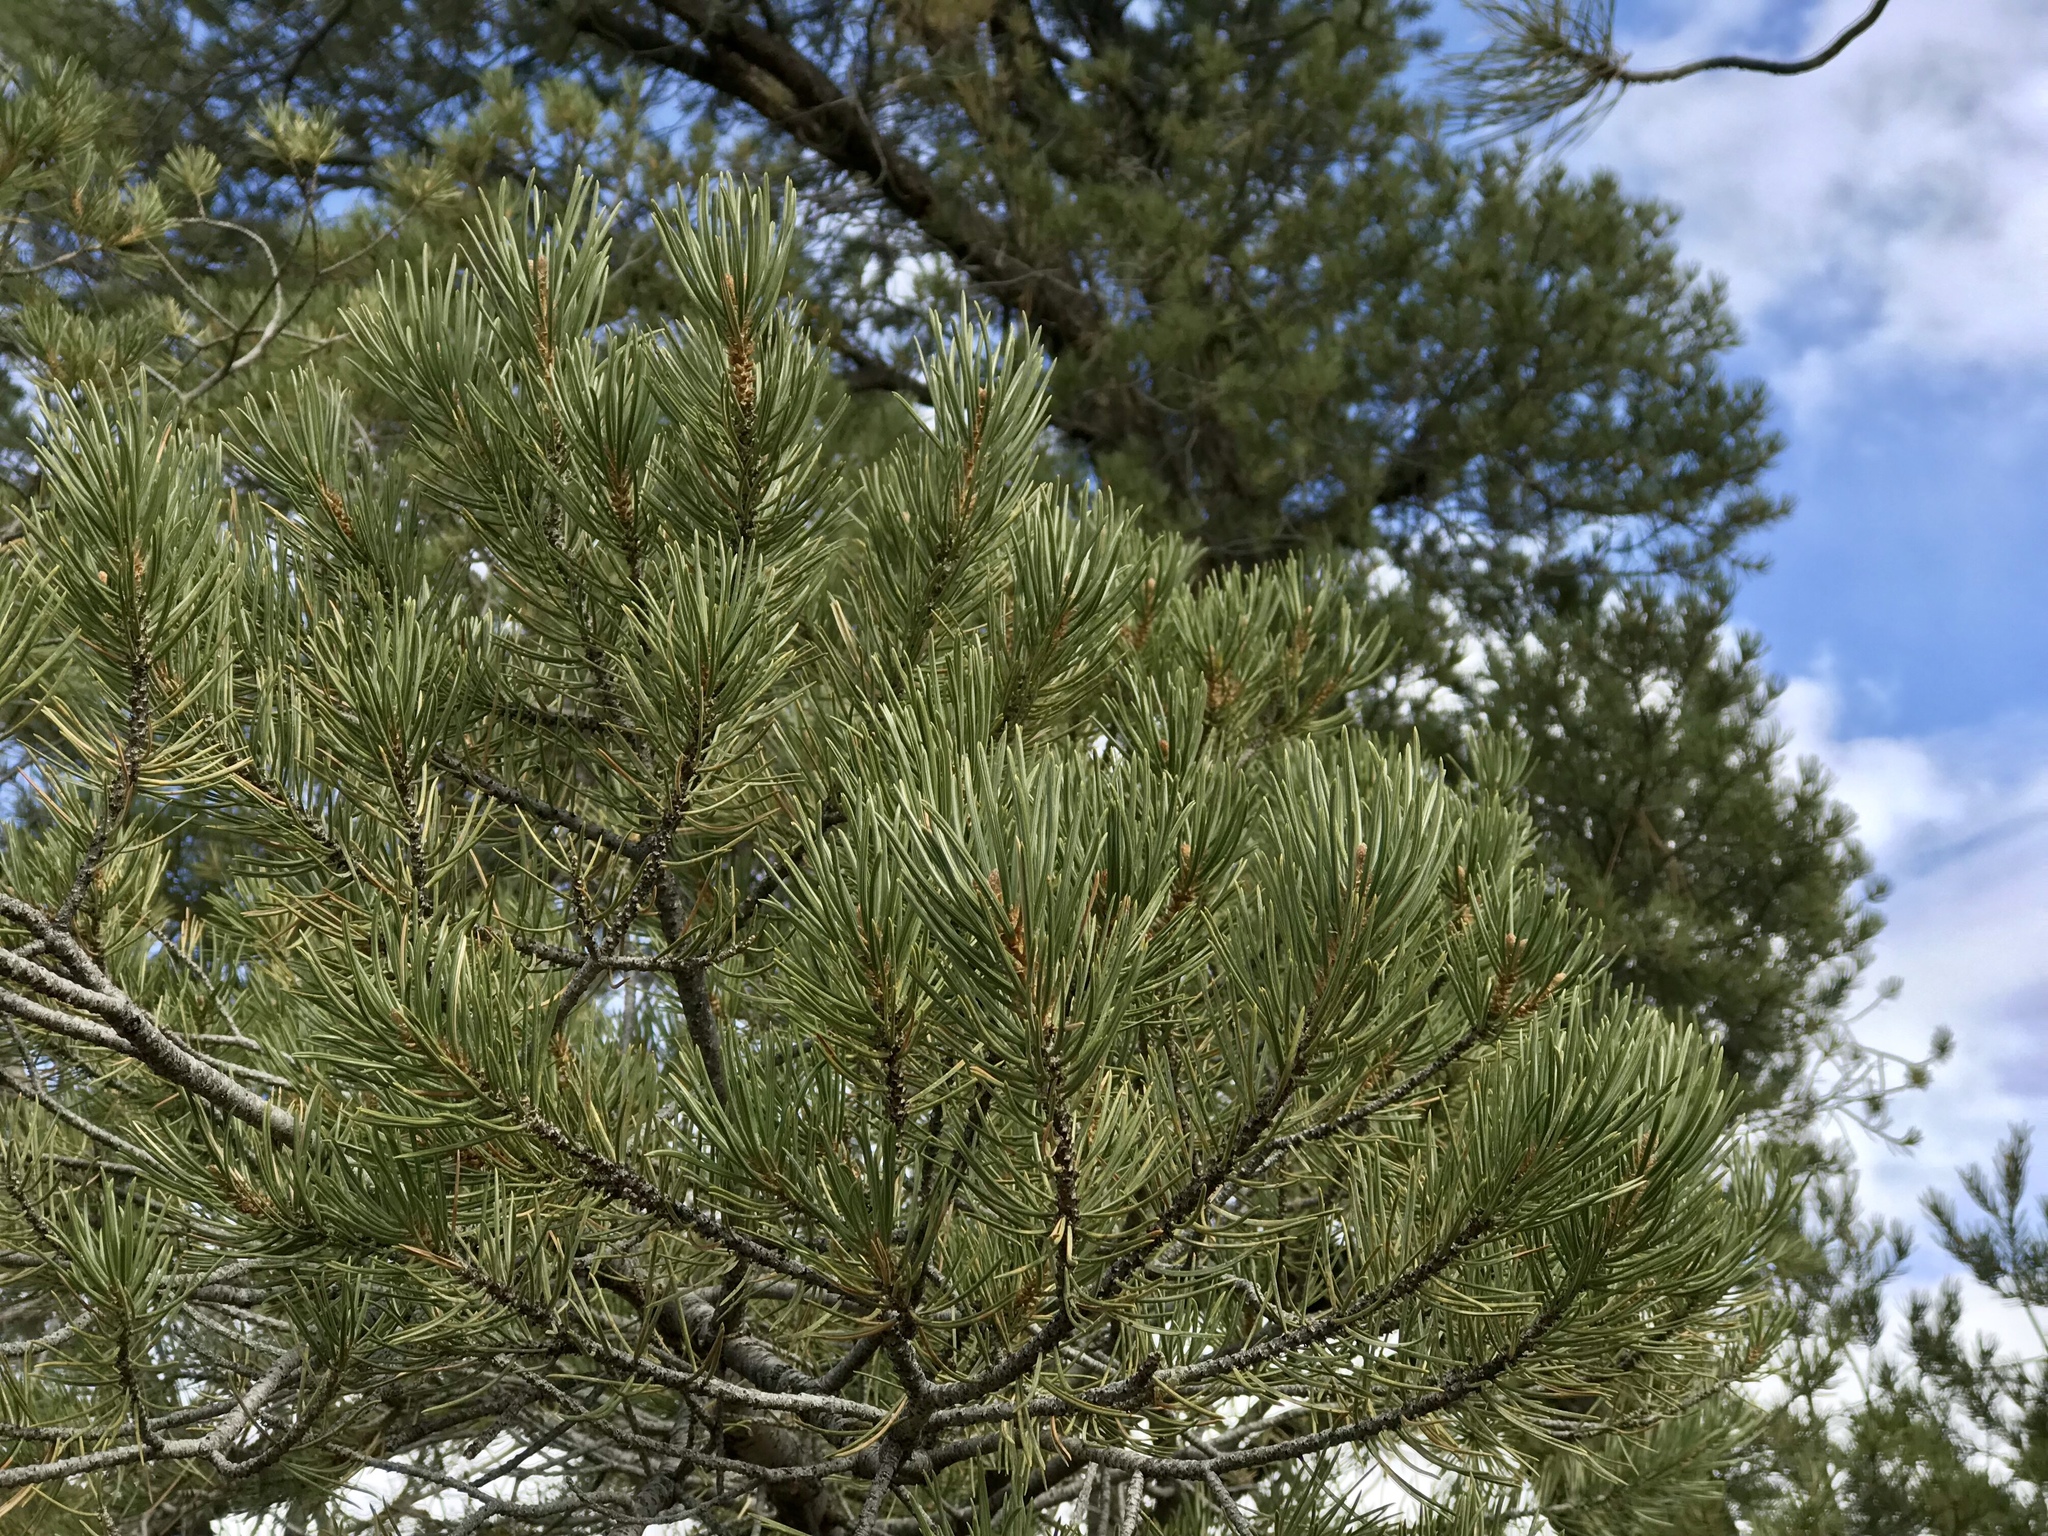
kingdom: Plantae
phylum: Tracheophyta
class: Pinopsida
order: Pinales
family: Pinaceae
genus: Pinus
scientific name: Pinus edulis
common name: Colorado pinyon
